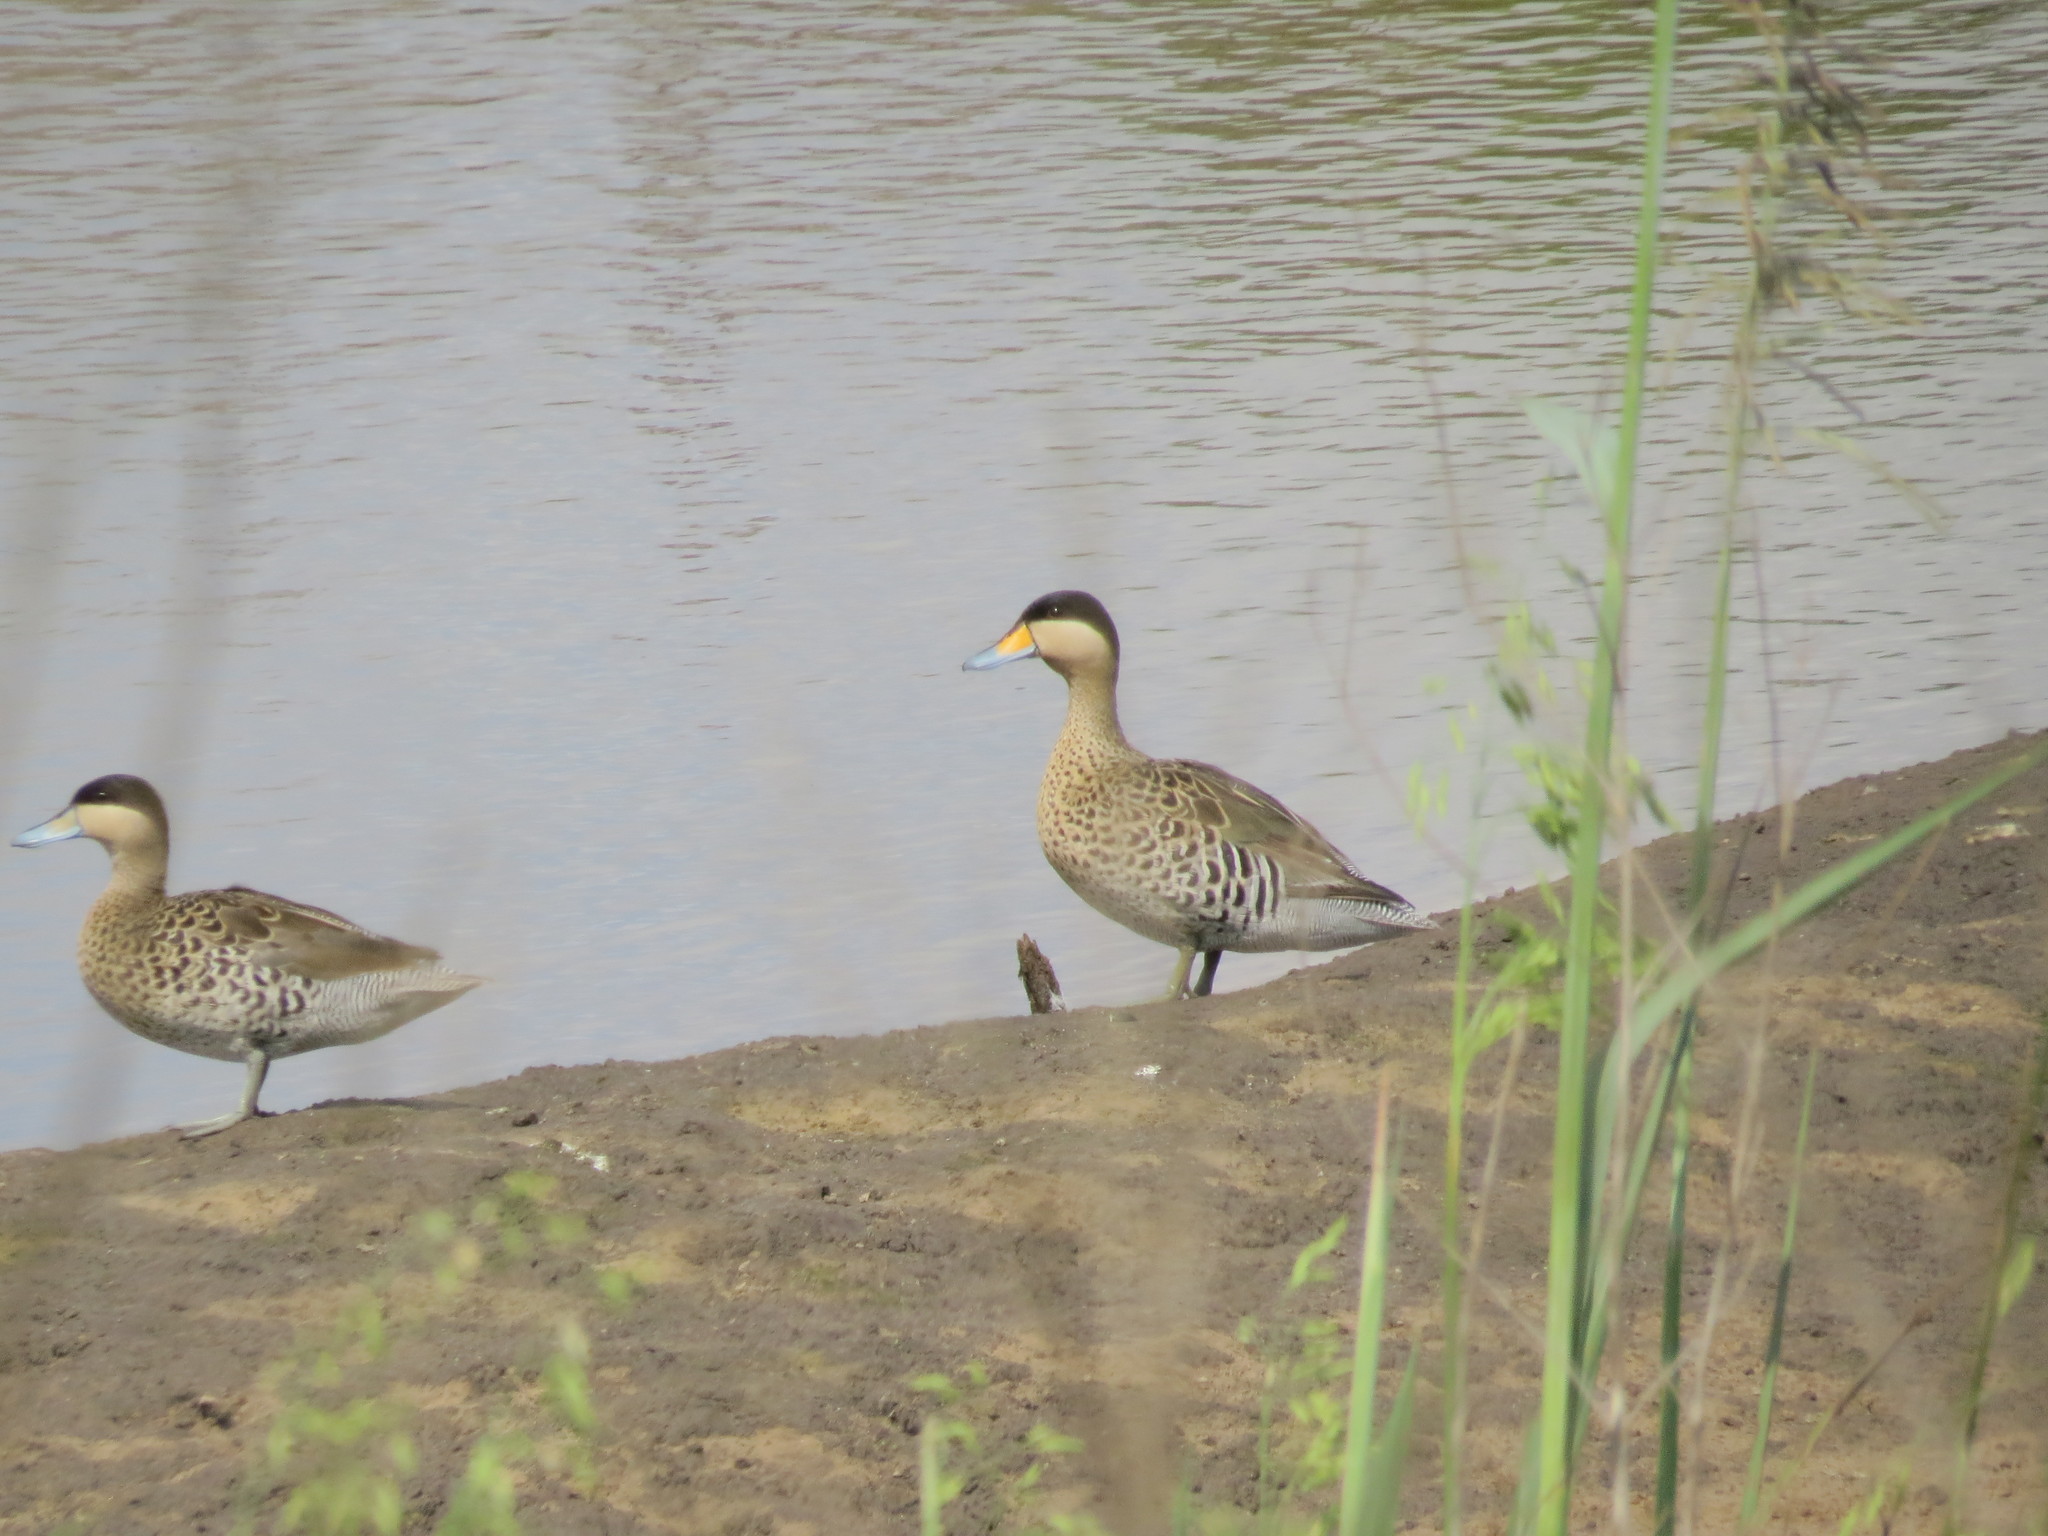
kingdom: Animalia
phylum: Chordata
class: Aves
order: Anseriformes
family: Anatidae
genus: Spatula
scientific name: Spatula versicolor
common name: Silver teal
